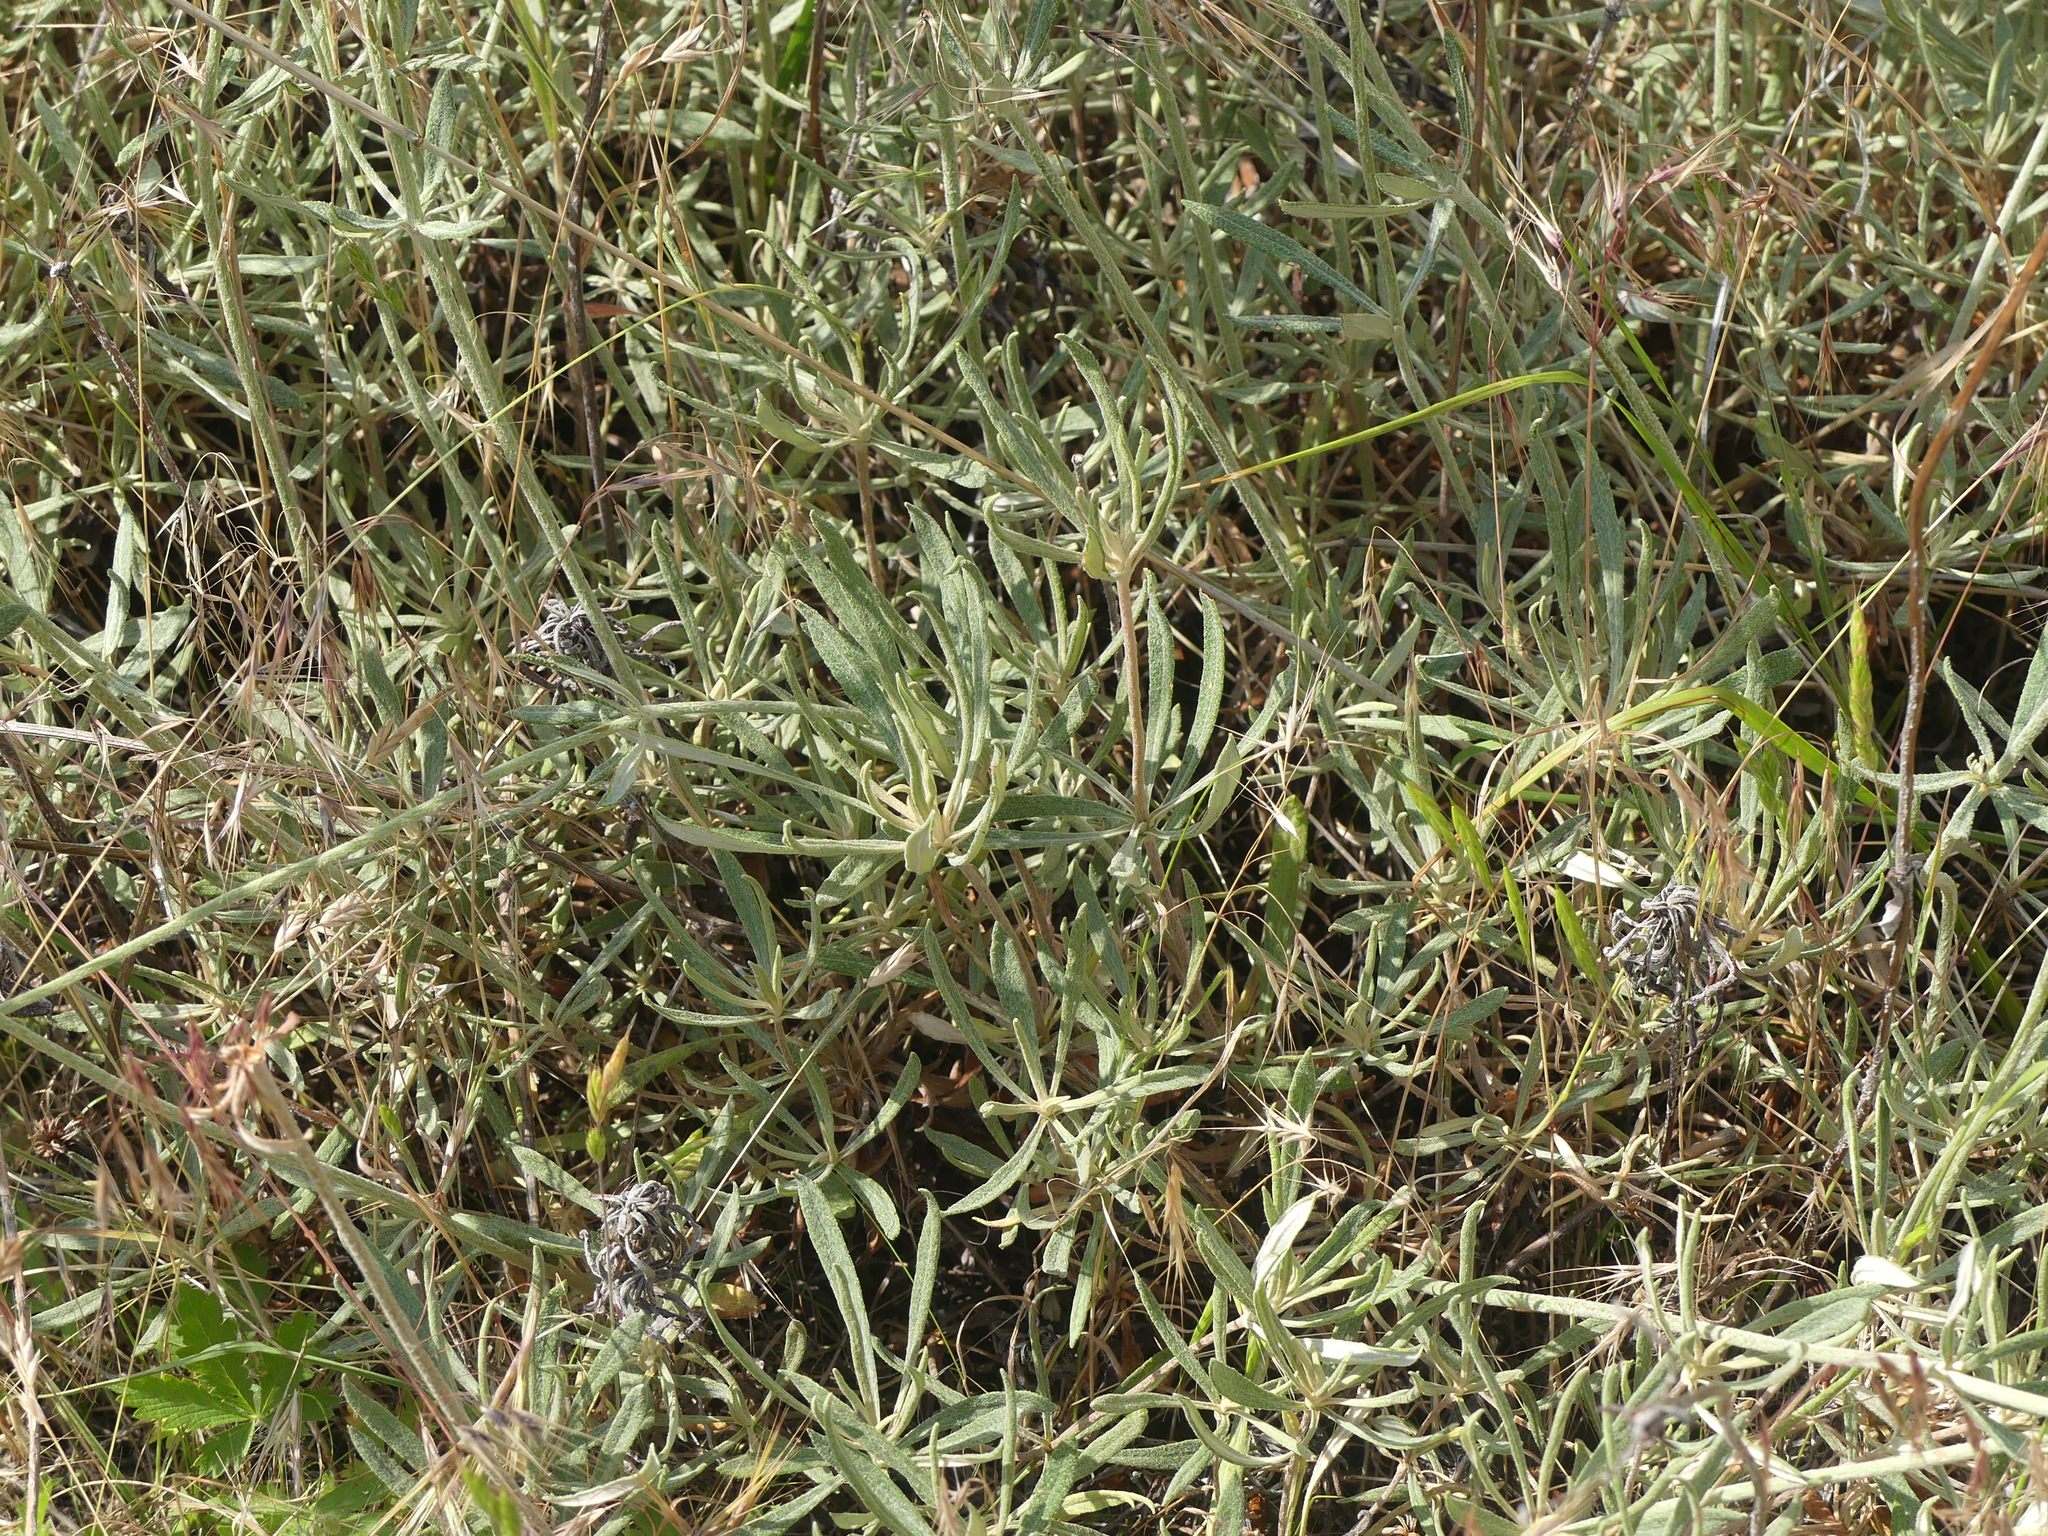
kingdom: Plantae
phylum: Tracheophyta
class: Magnoliopsida
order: Caryophyllales
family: Polygonaceae
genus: Eriogonum
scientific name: Eriogonum heracleoides
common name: Wyeth's buckwheat
